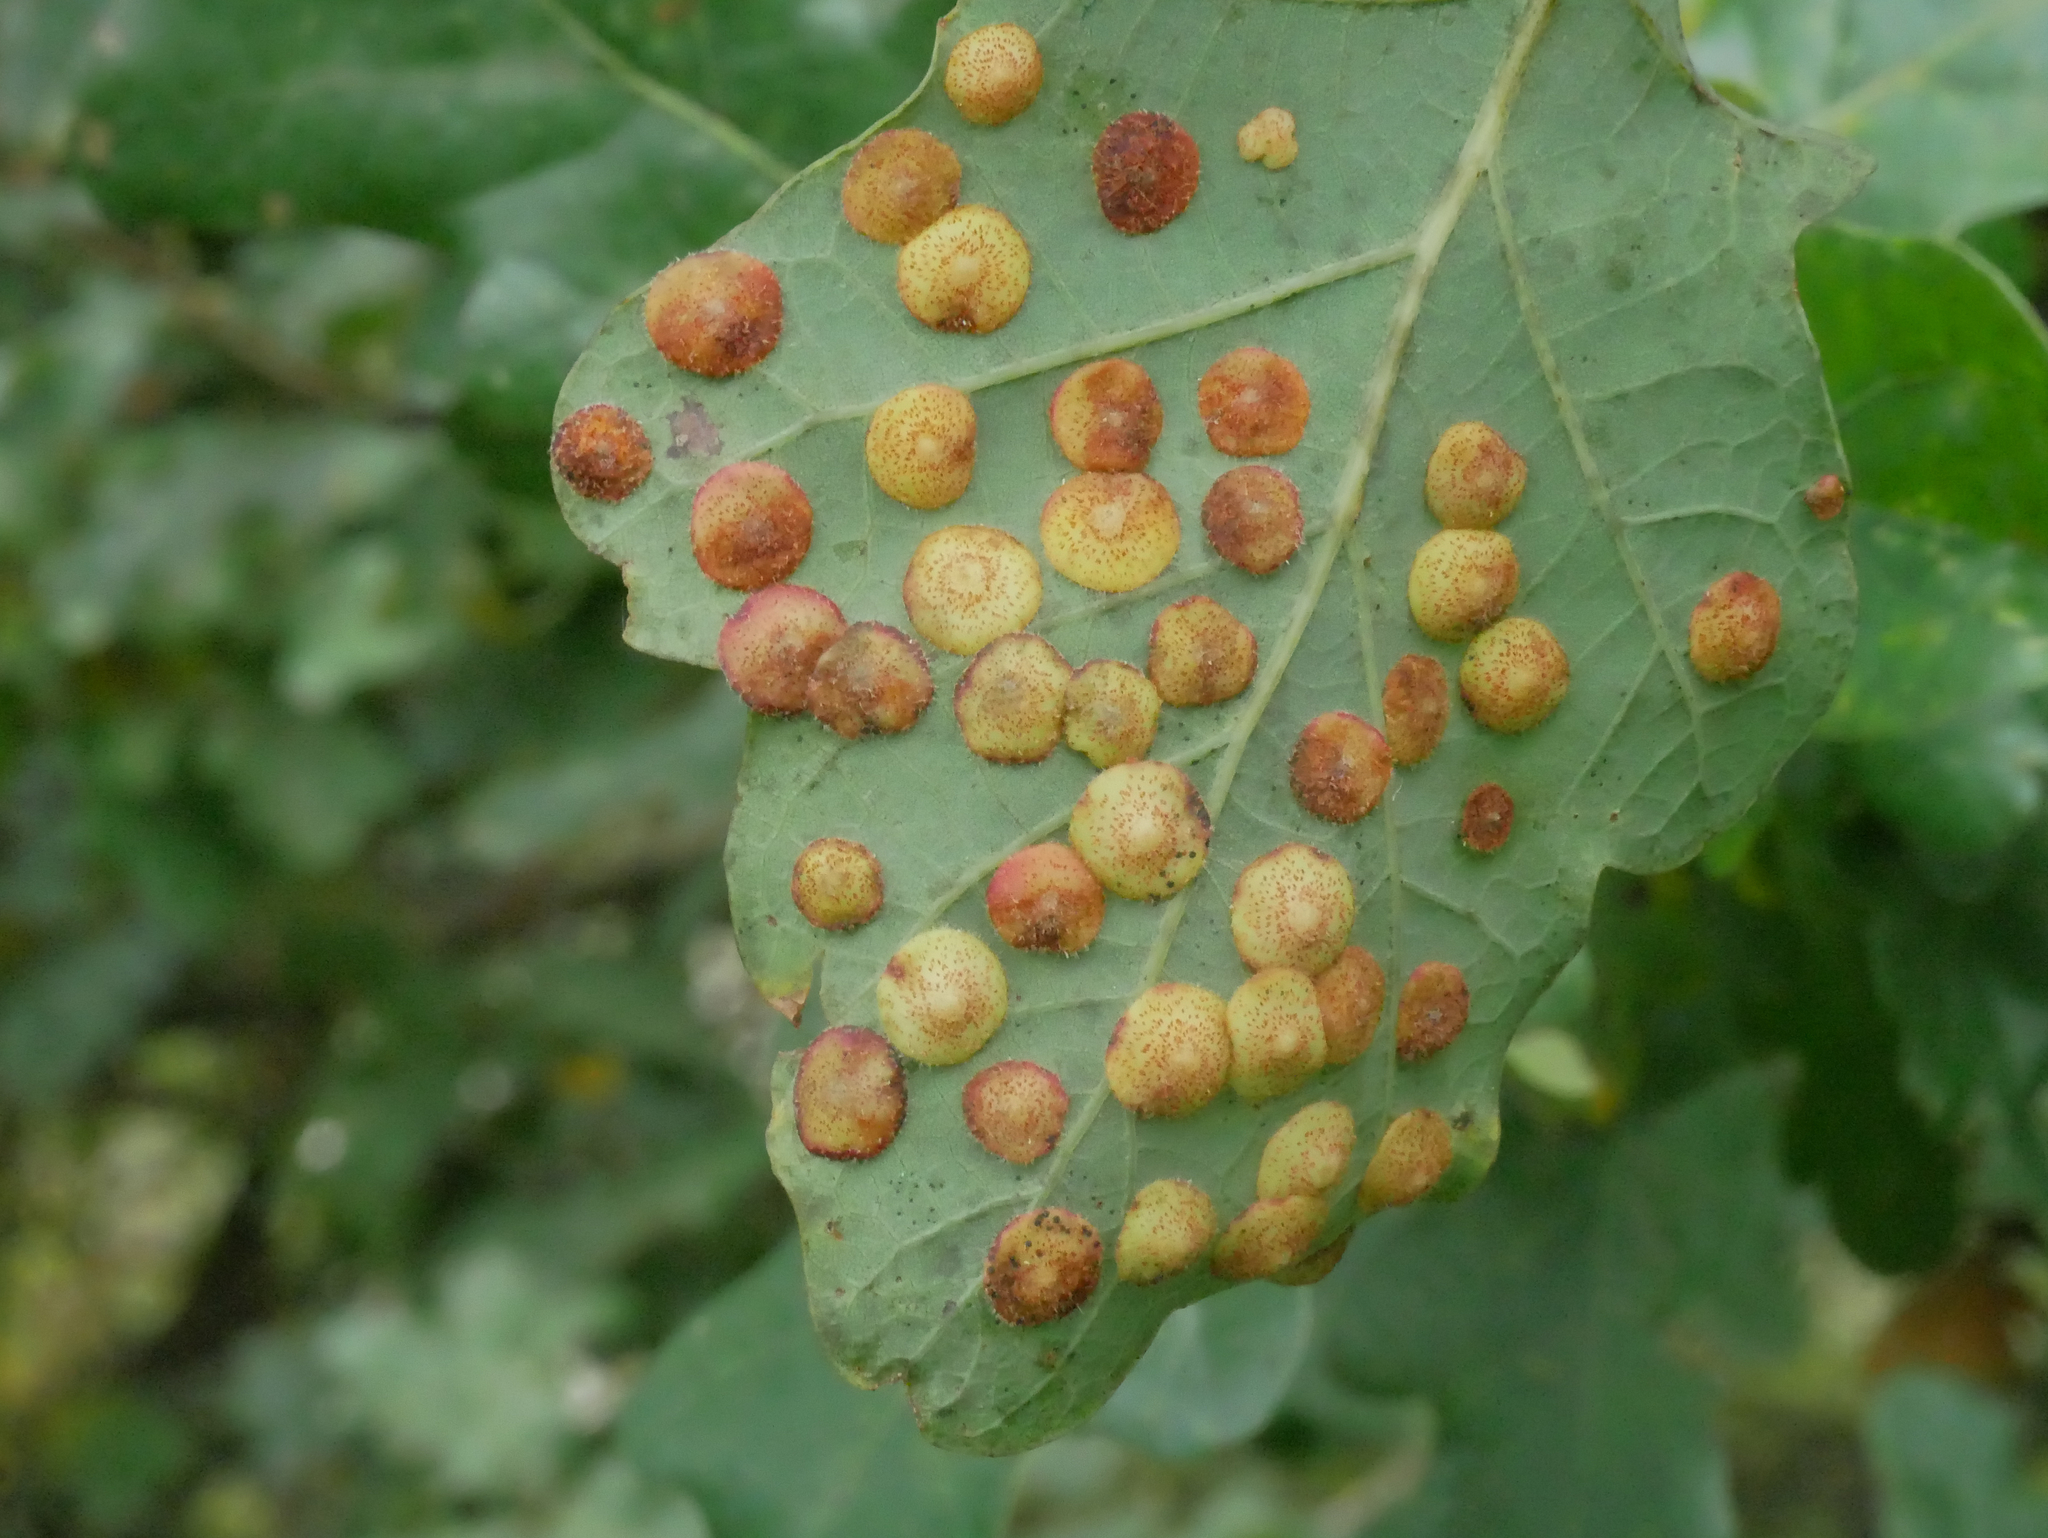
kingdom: Animalia
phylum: Arthropoda
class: Insecta
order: Hymenoptera
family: Cynipidae
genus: Neuroterus
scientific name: Neuroterus quercusbaccarum
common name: Common spangle gall
